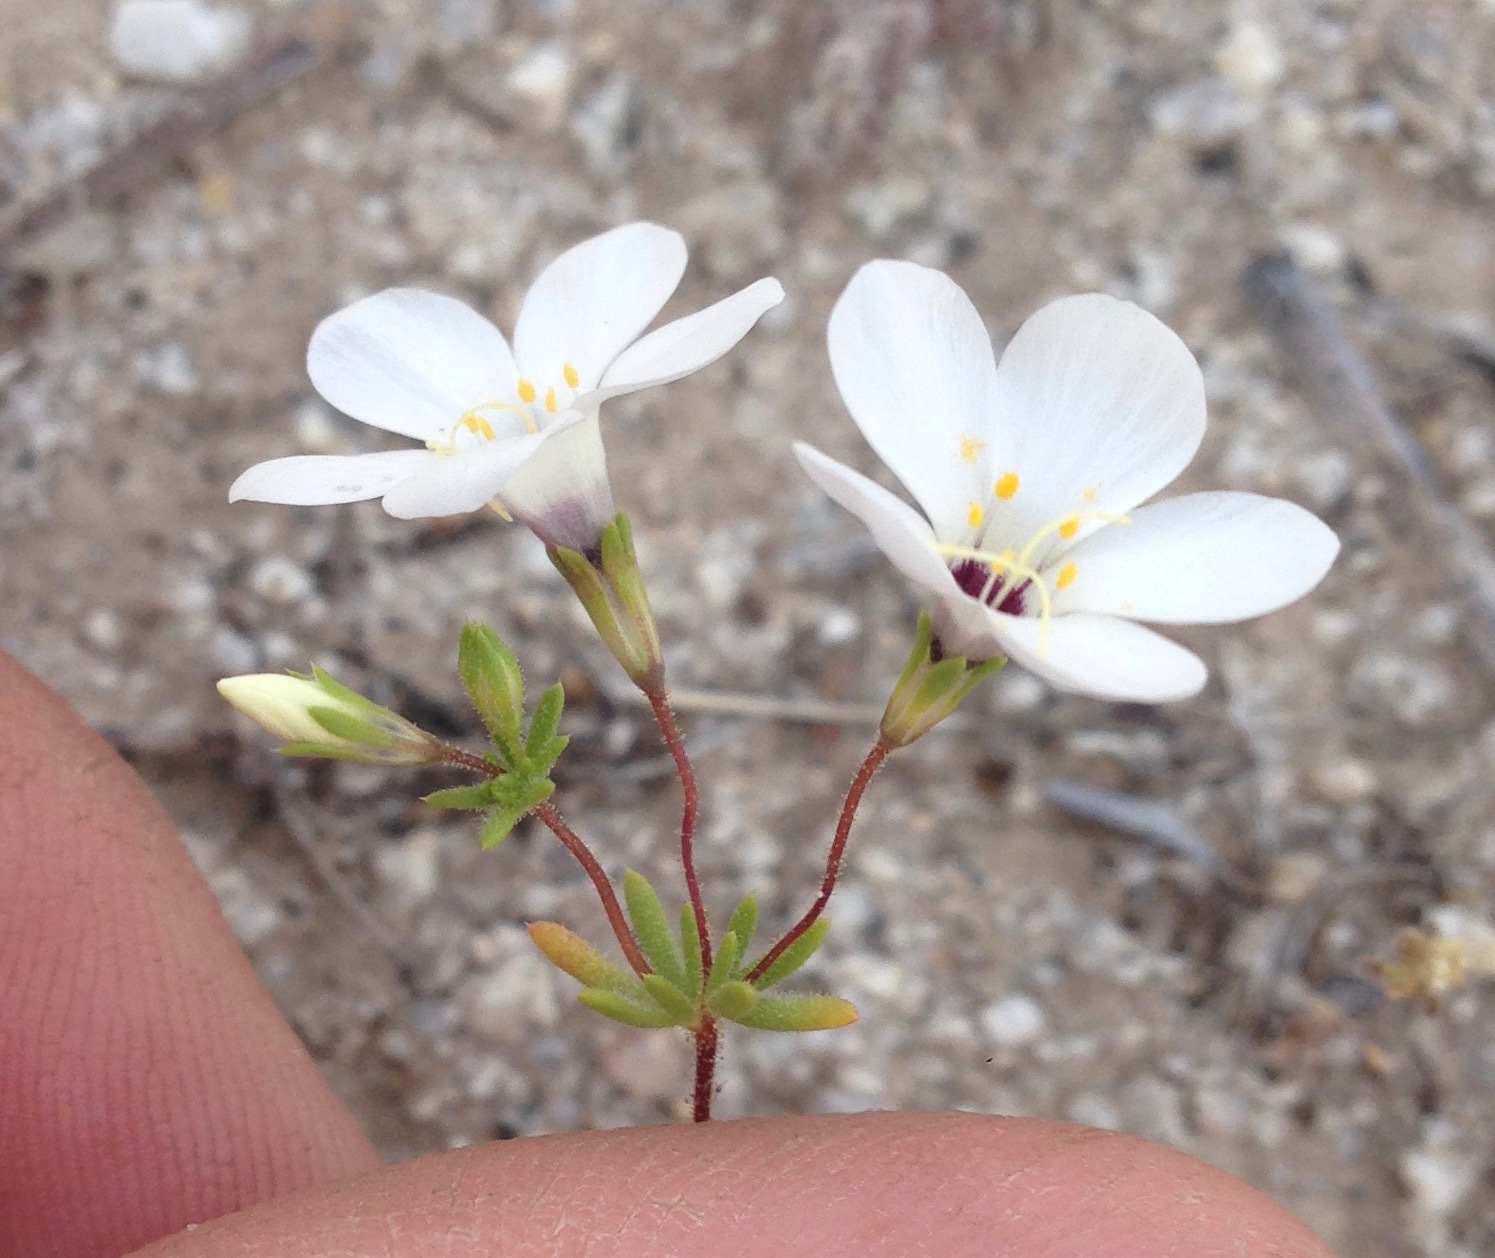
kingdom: Plantae
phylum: Tracheophyta
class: Magnoliopsida
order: Ericales
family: Polemoniaceae
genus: Leptosiphon
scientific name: Leptosiphon chrysanthus
